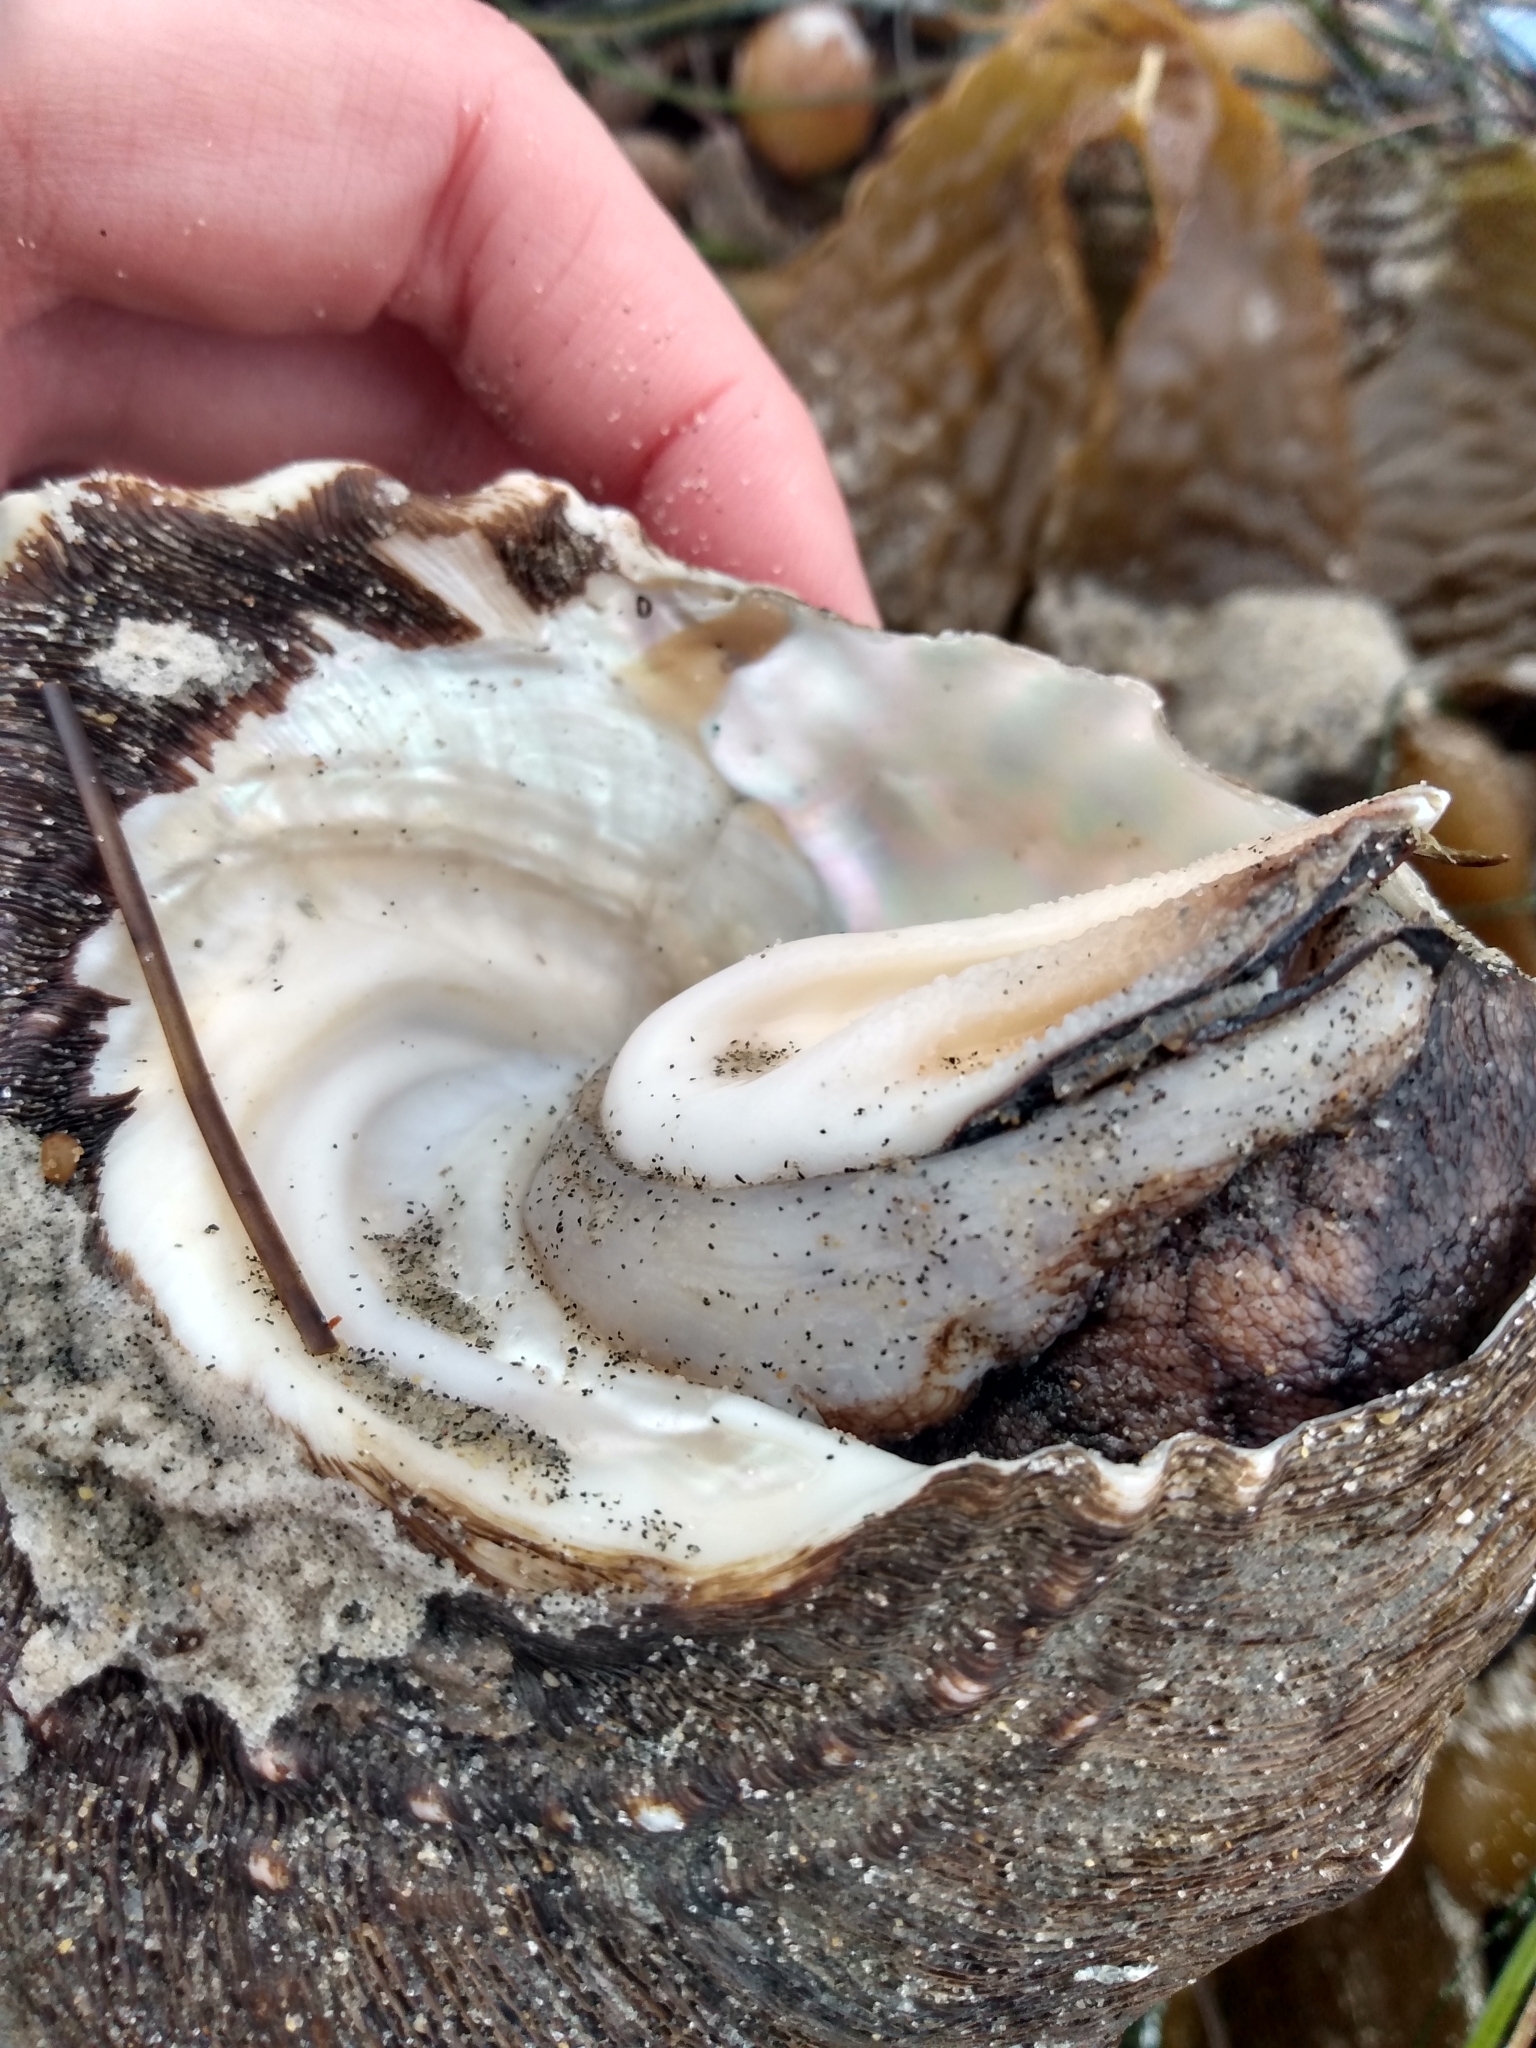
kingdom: Animalia
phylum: Mollusca
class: Gastropoda
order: Trochida
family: Turbinidae
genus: Megastraea
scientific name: Megastraea undosa
